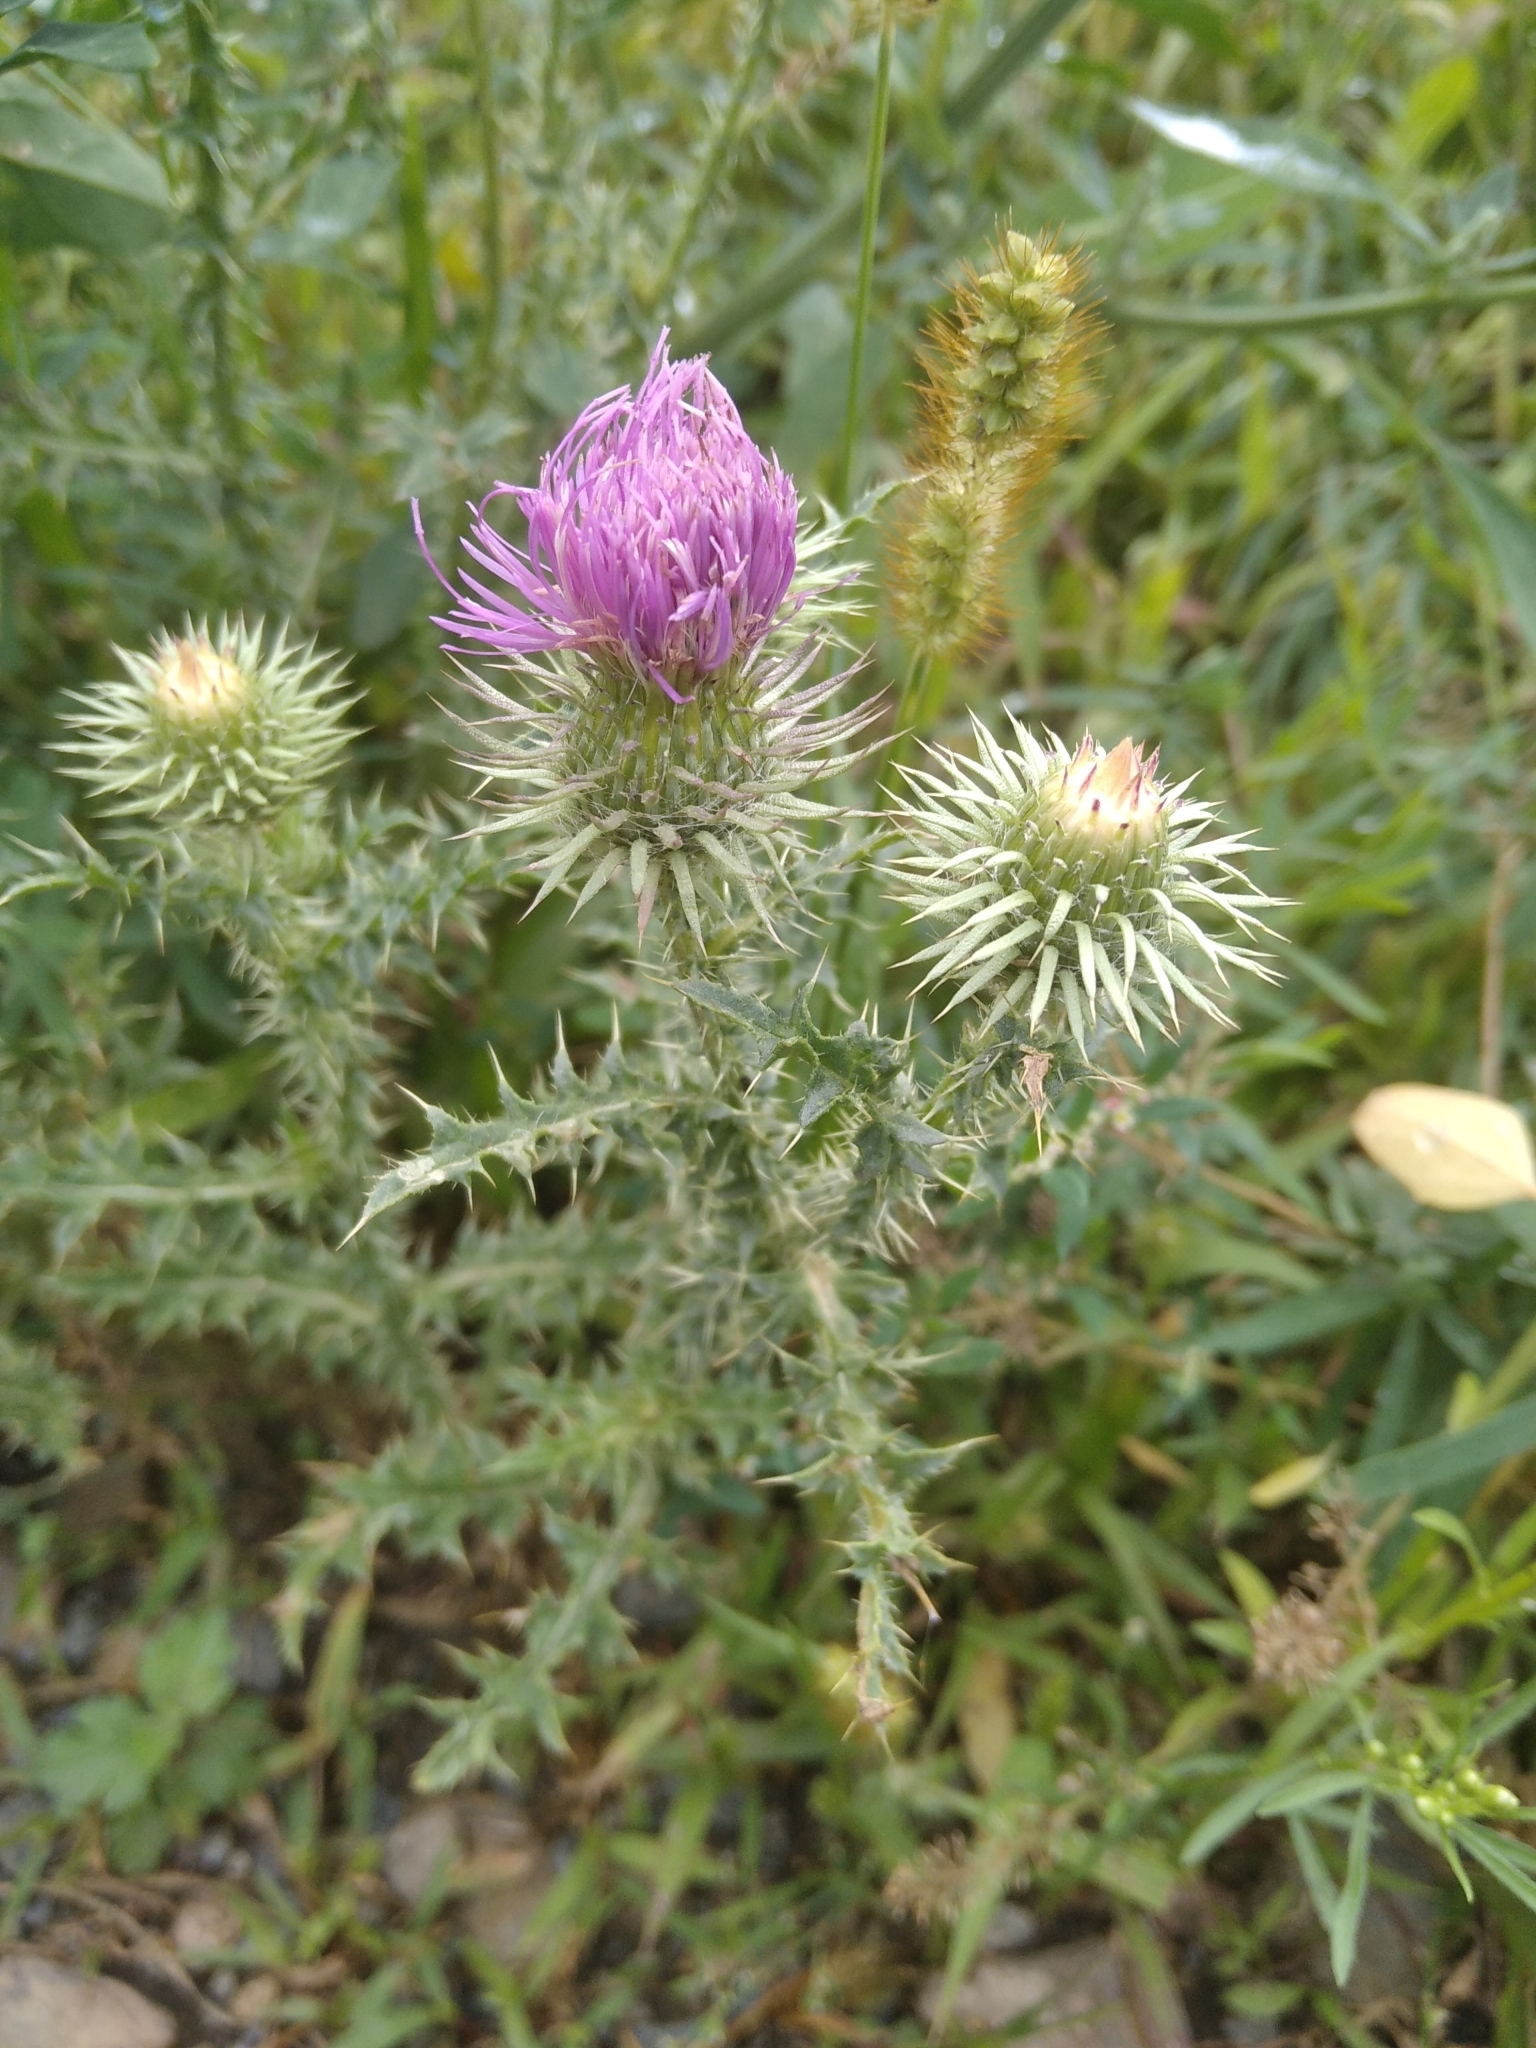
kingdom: Plantae
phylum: Tracheophyta
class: Magnoliopsida
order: Asterales
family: Asteraceae
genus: Carduus
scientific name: Carduus acanthoides
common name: Plumeless thistle
